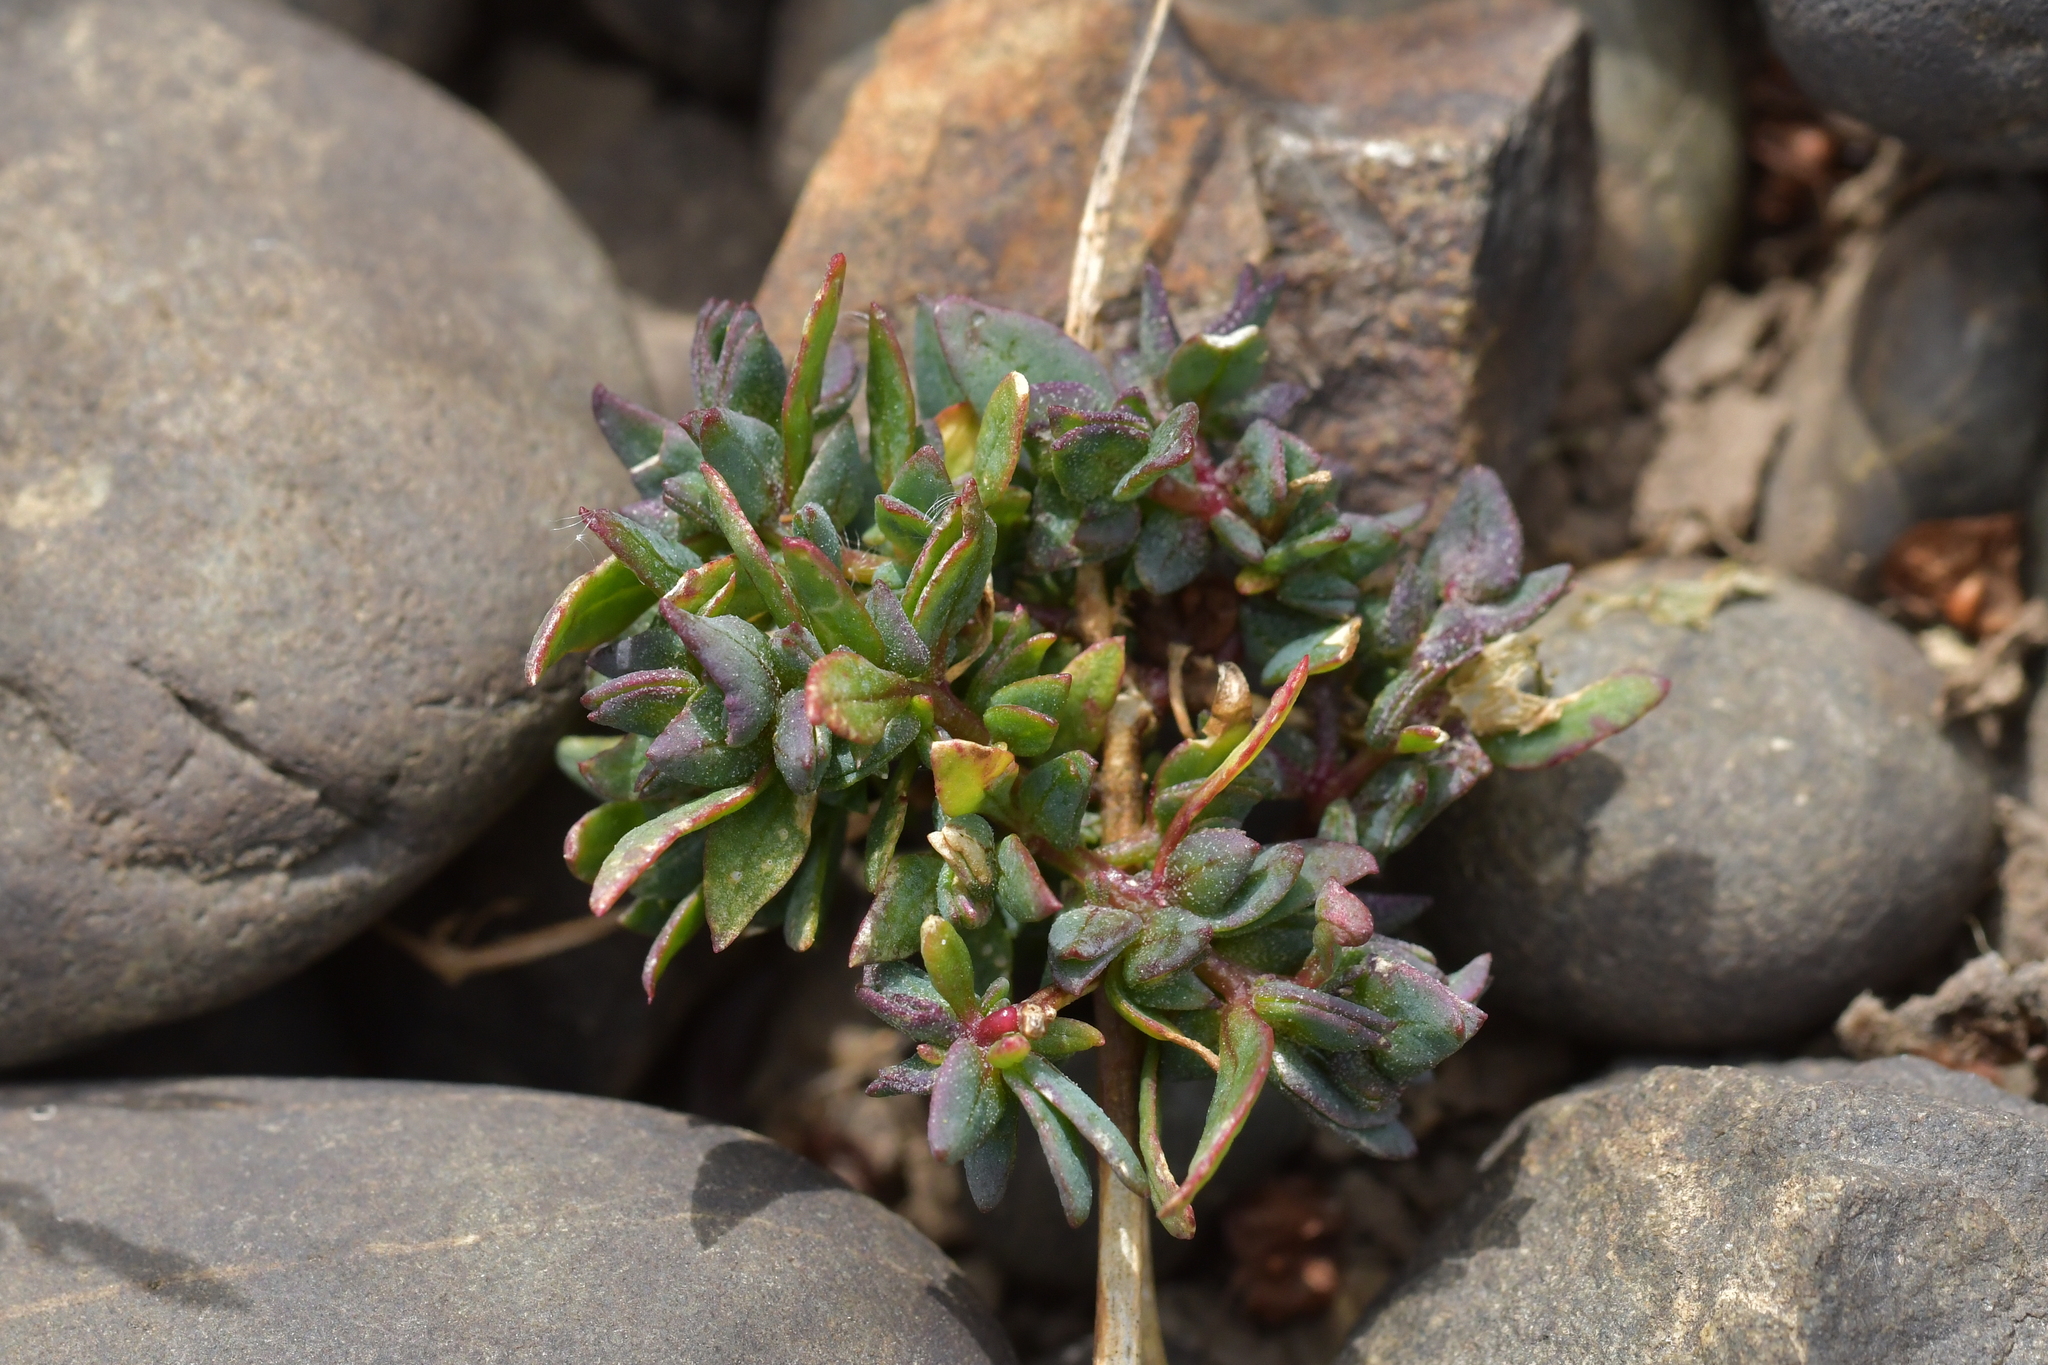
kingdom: Plantae
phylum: Tracheophyta
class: Magnoliopsida
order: Caryophyllales
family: Amaranthaceae
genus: Atriplex
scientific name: Atriplex prostrata
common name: Spear-leaved orache
